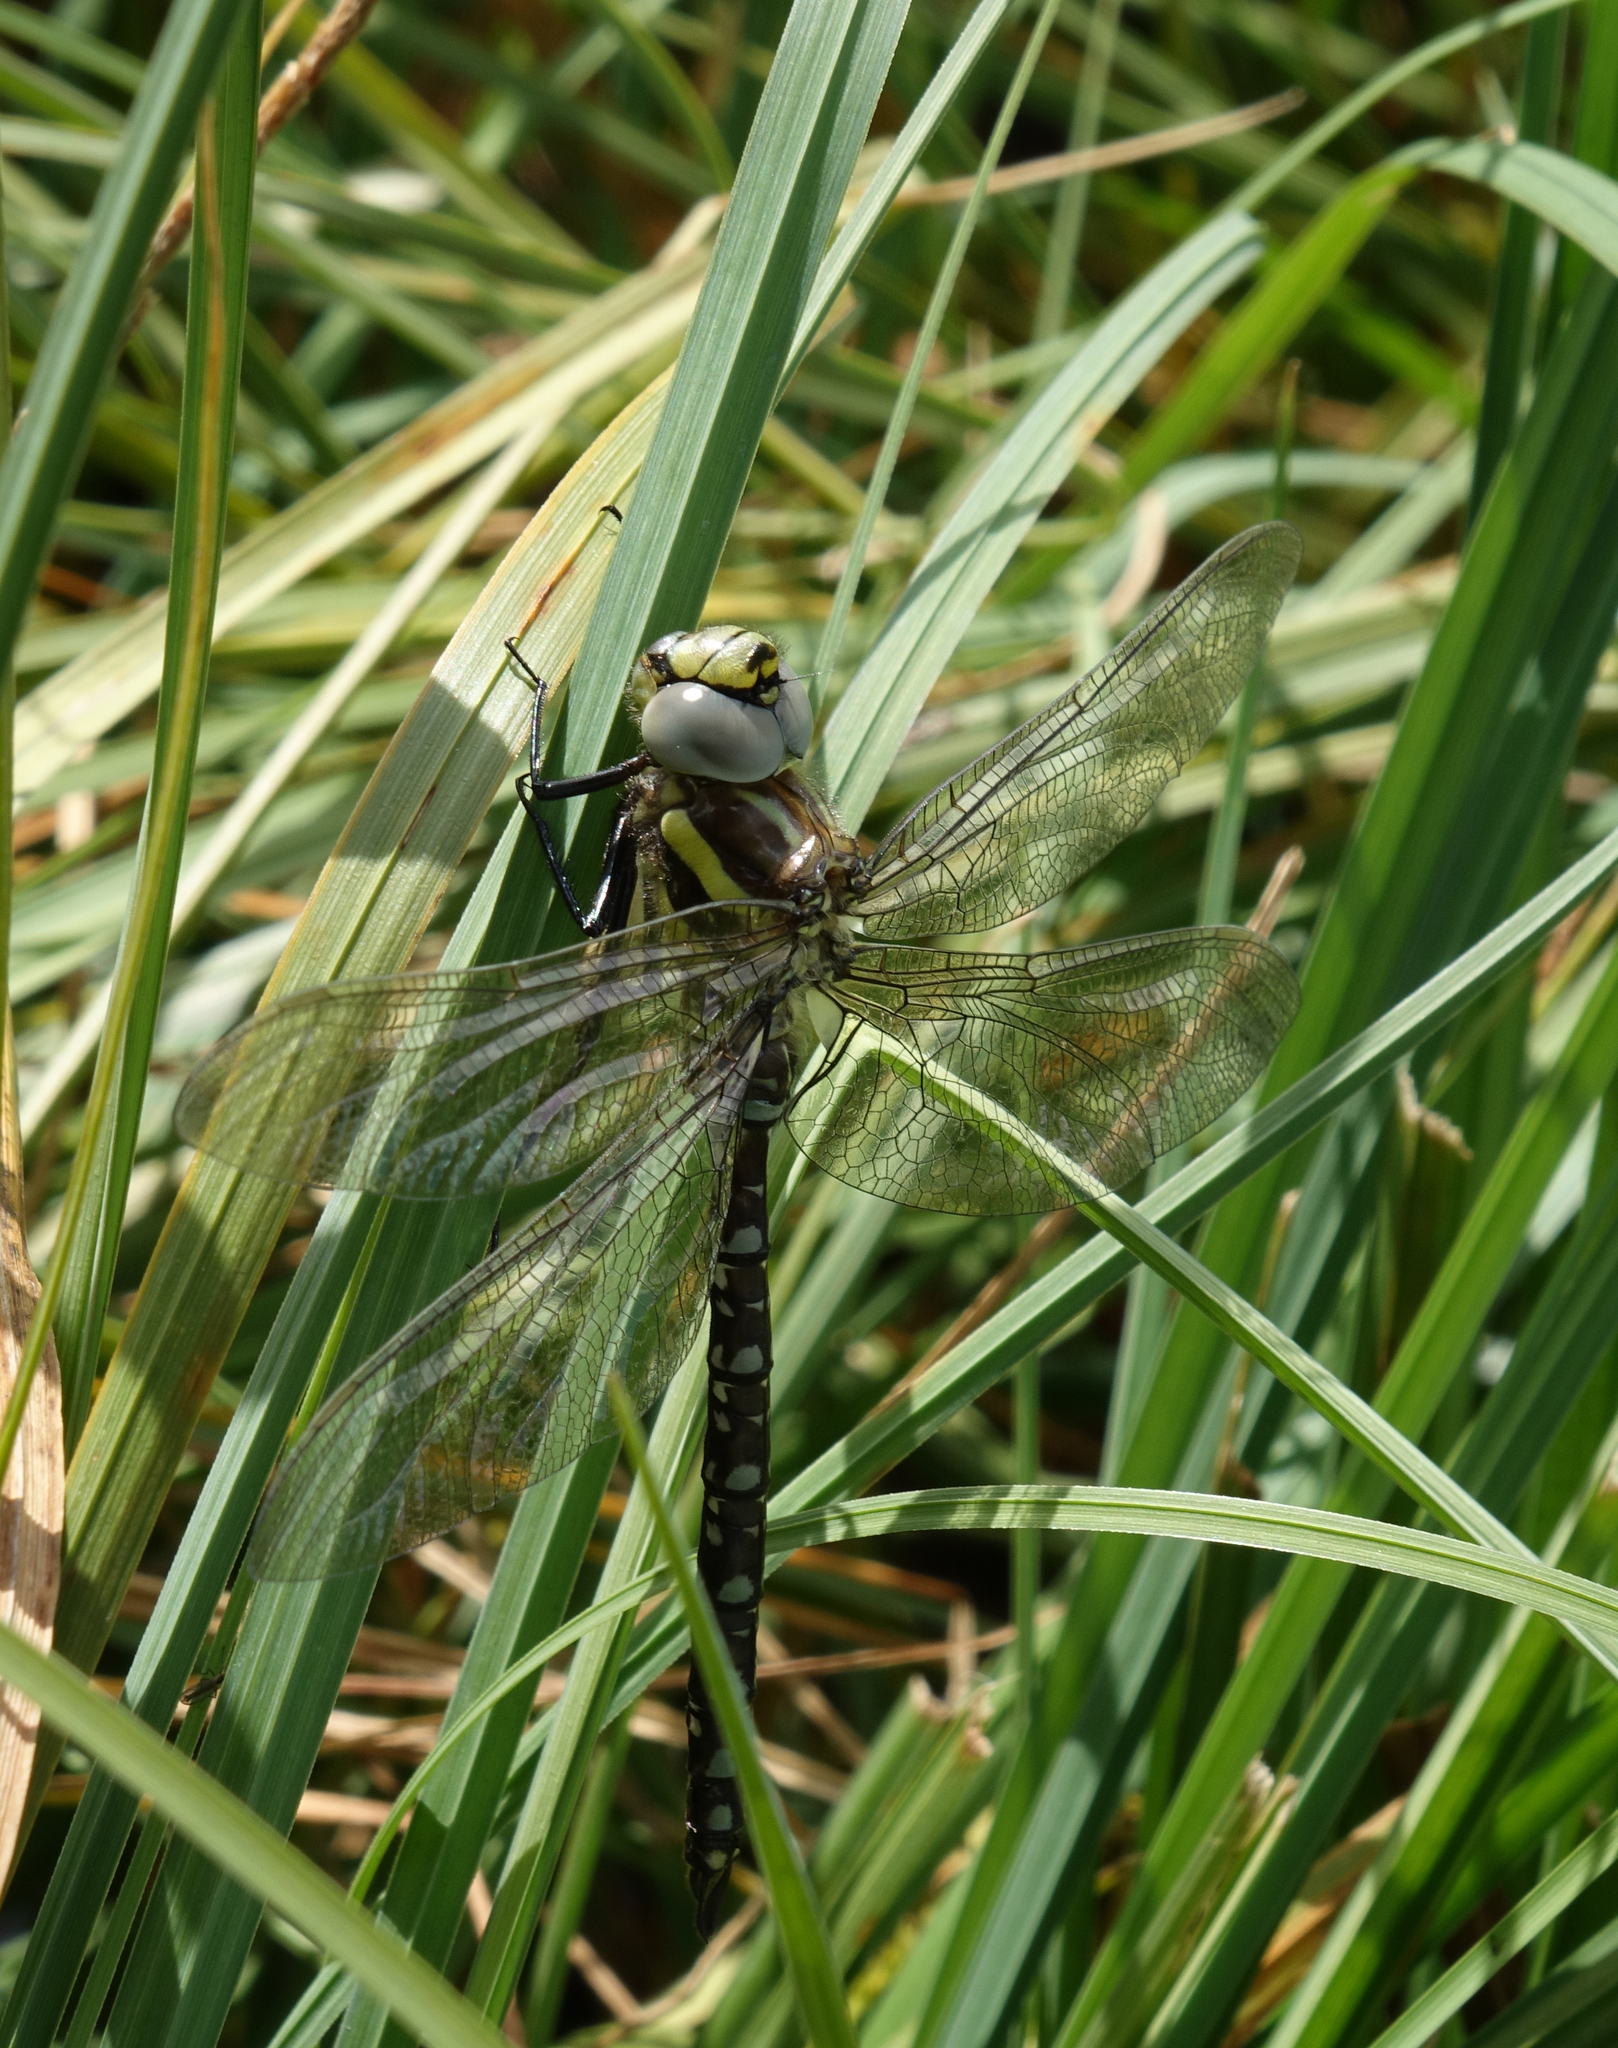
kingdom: Animalia
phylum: Arthropoda
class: Insecta
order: Odonata
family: Aeshnidae
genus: Aeshna
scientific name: Aeshna juncea
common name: Moorland hawker
